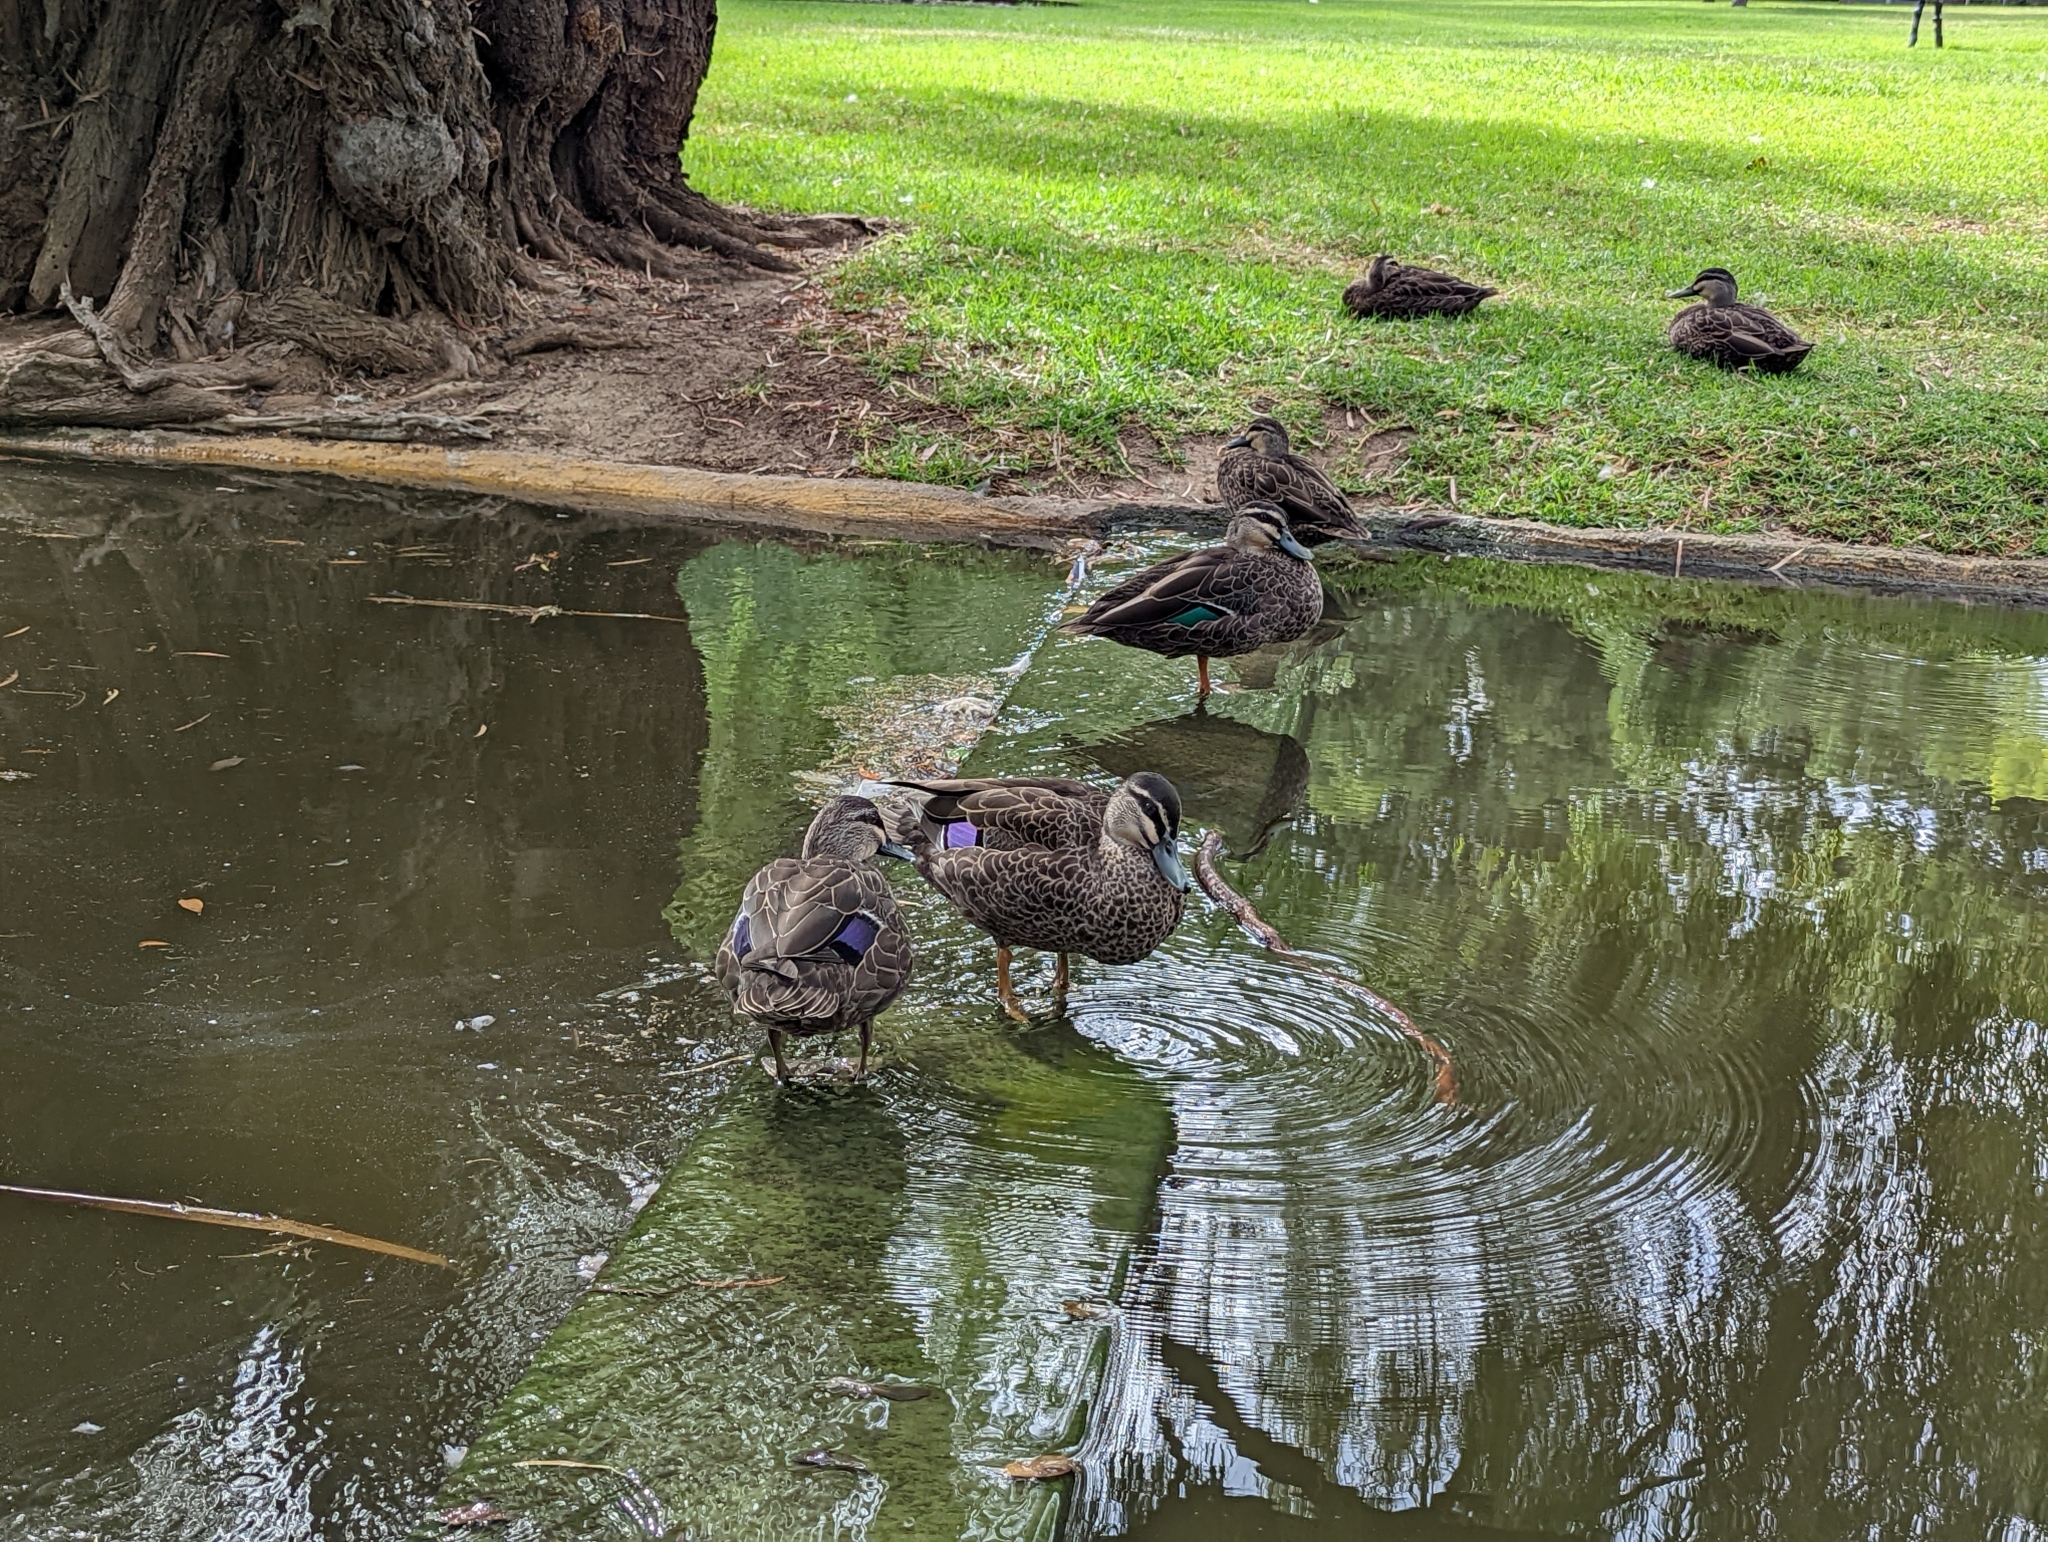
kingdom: Animalia
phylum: Chordata
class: Aves
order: Anseriformes
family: Anatidae
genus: Anas
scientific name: Anas
